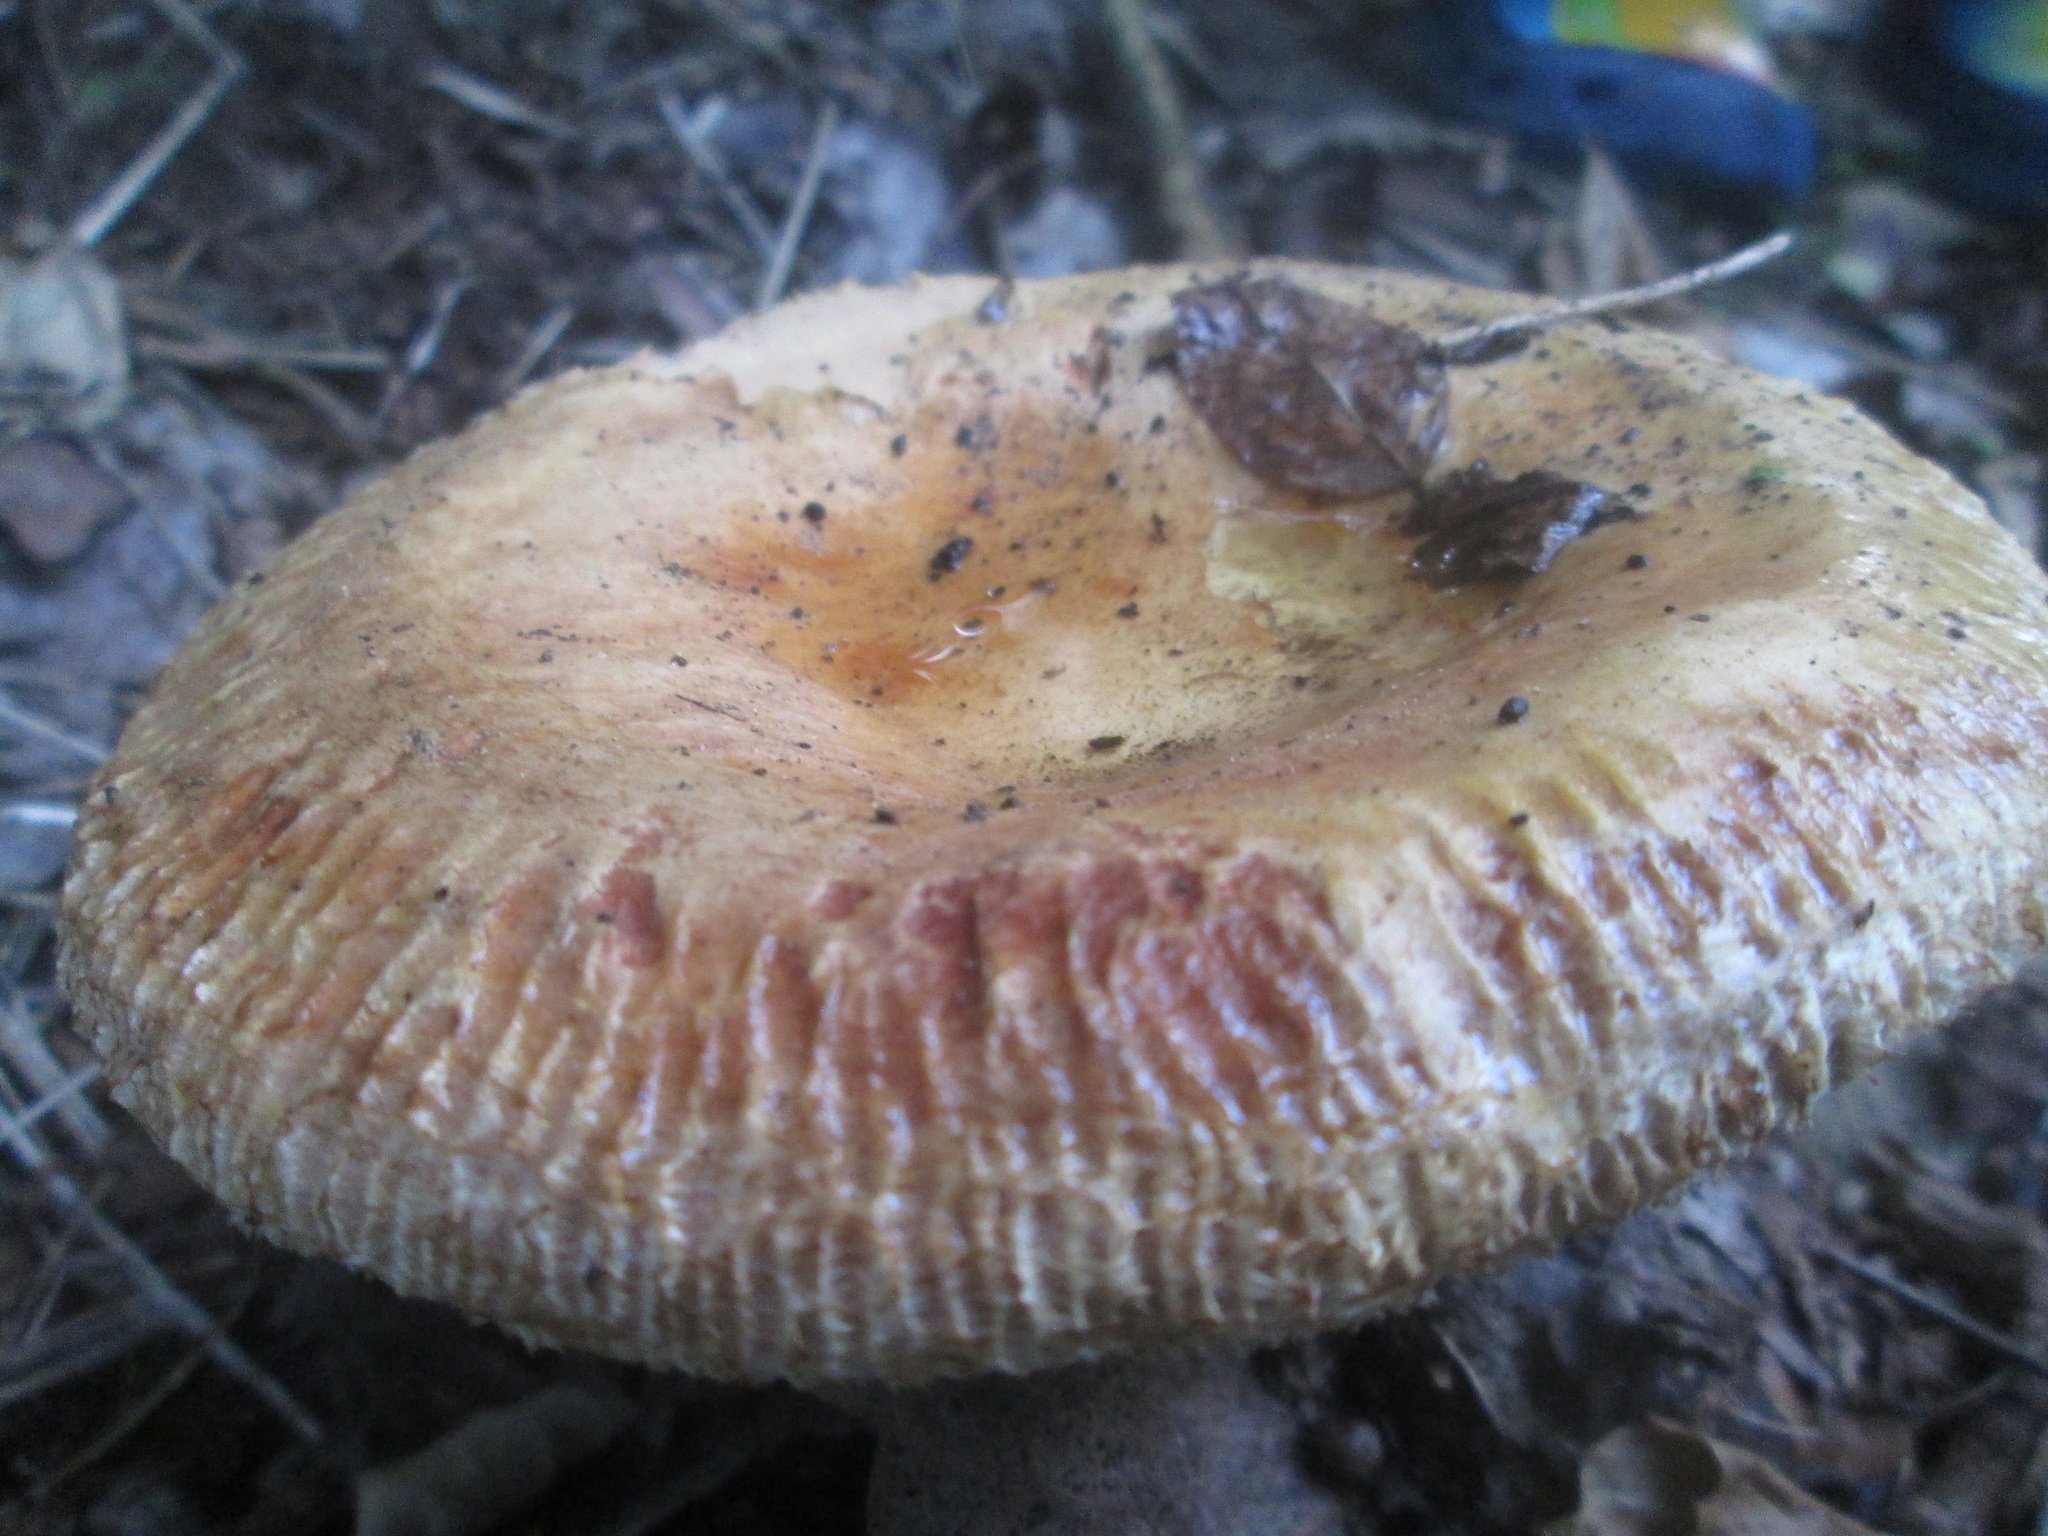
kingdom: Fungi
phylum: Basidiomycota
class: Agaricomycetes
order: Boletales
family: Paxillaceae
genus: Paxillus
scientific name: Paxillus involutus
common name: Brown roll rim
